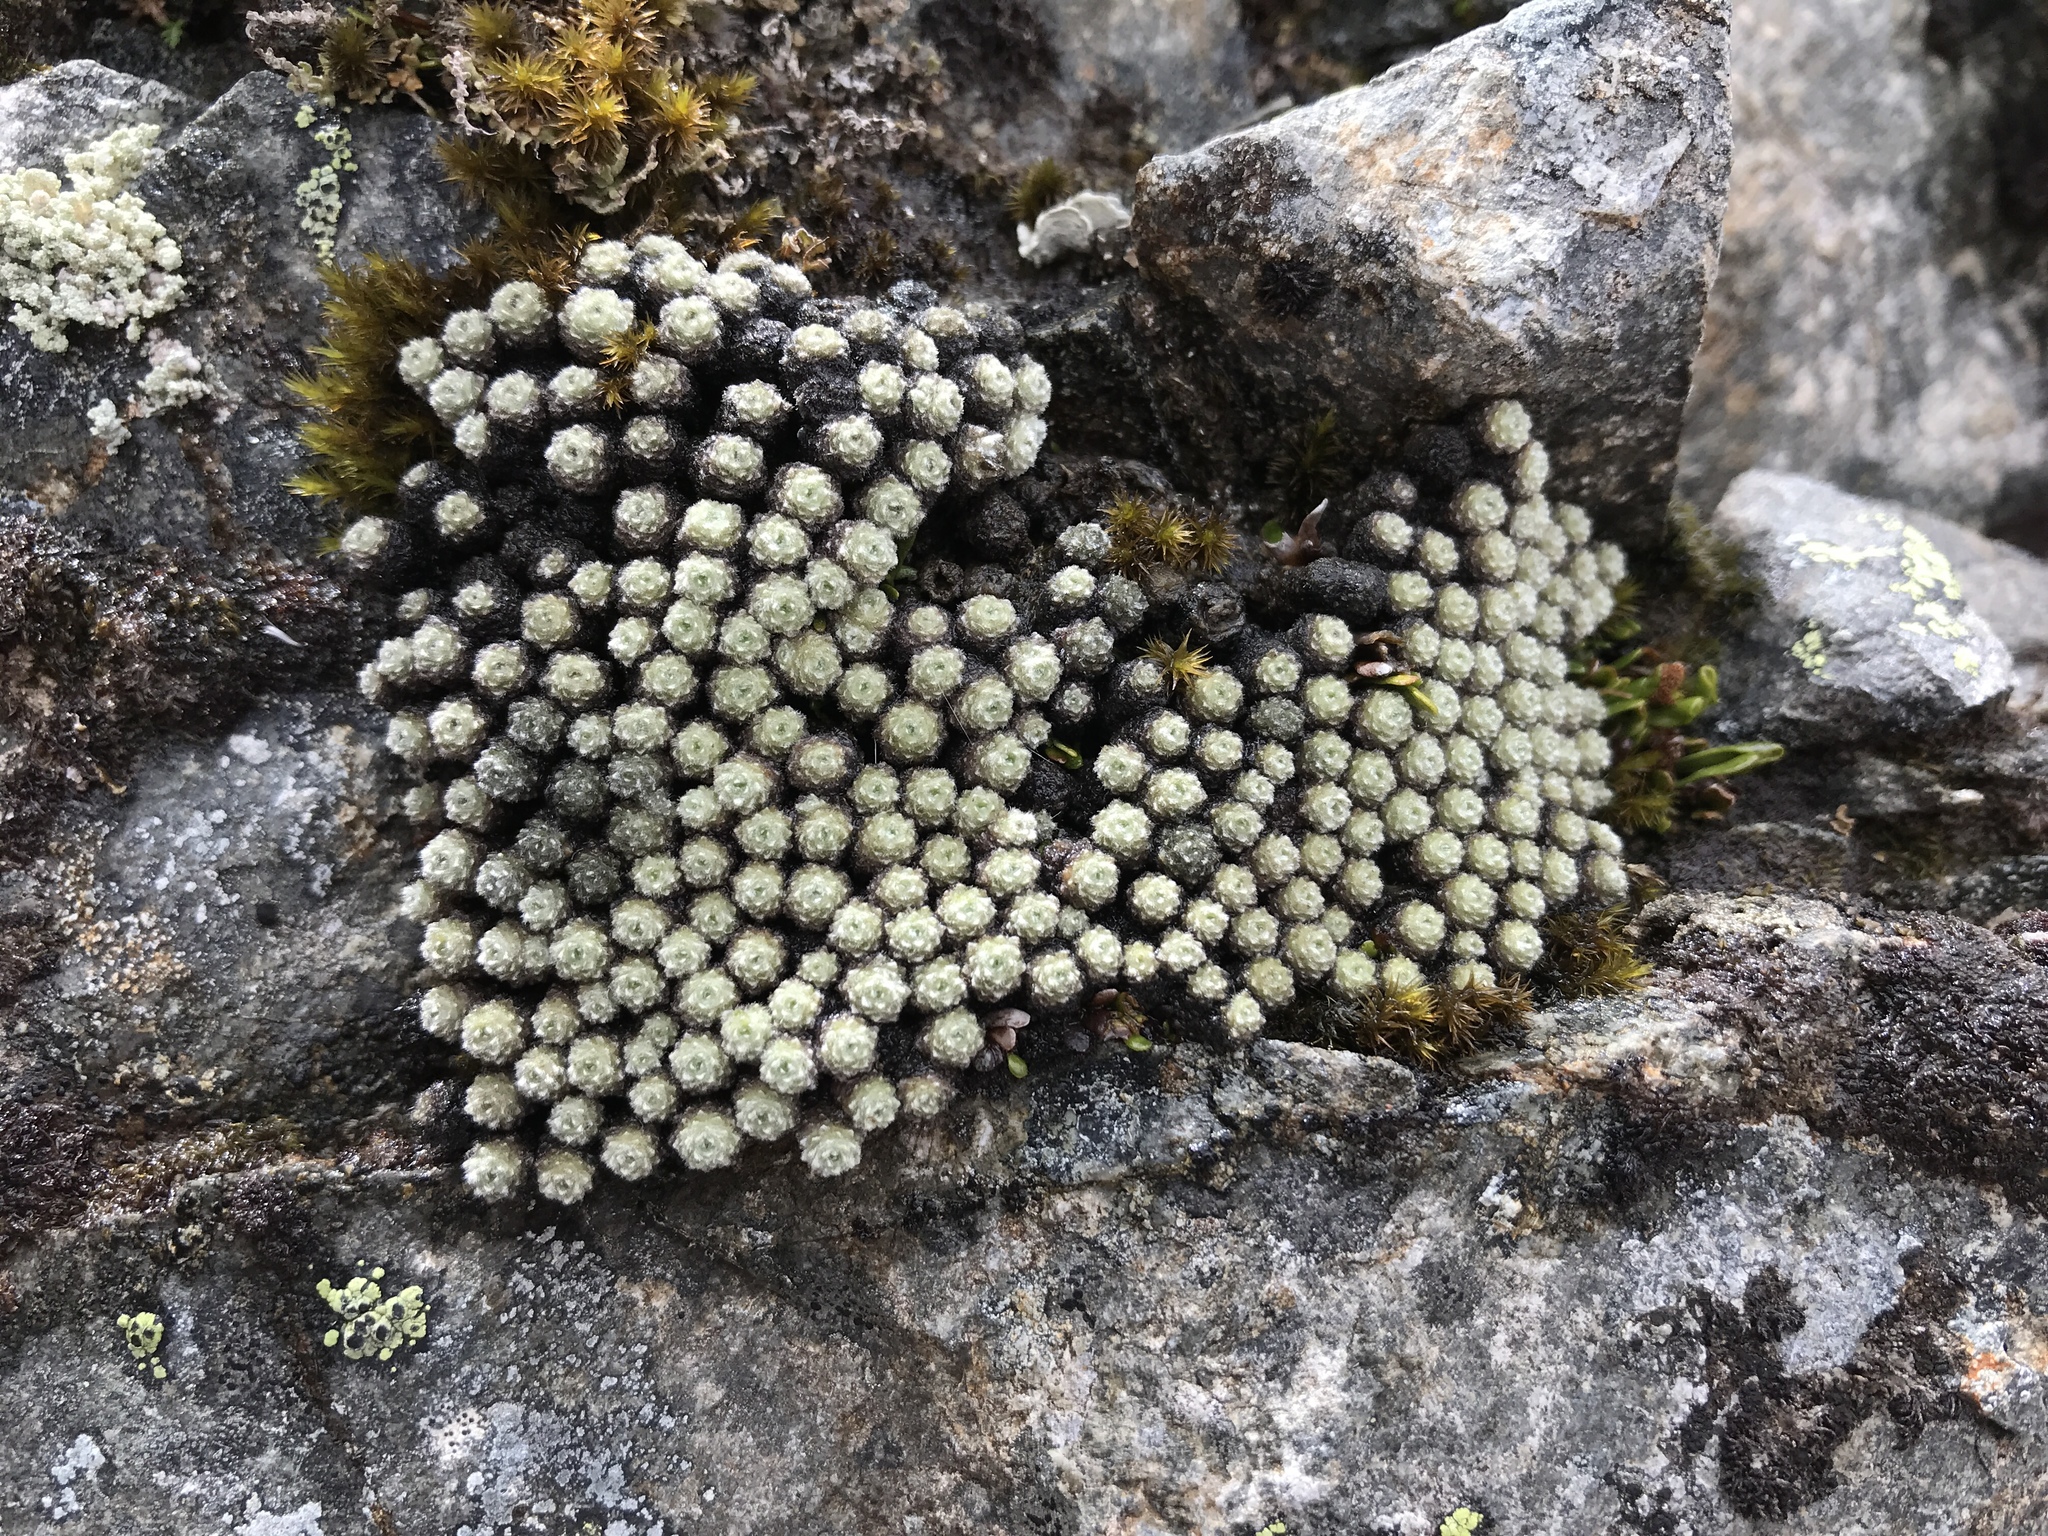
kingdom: Plantae
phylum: Tracheophyta
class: Magnoliopsida
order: Asterales
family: Asteraceae
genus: Raoulia
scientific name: Raoulia mammillaris
